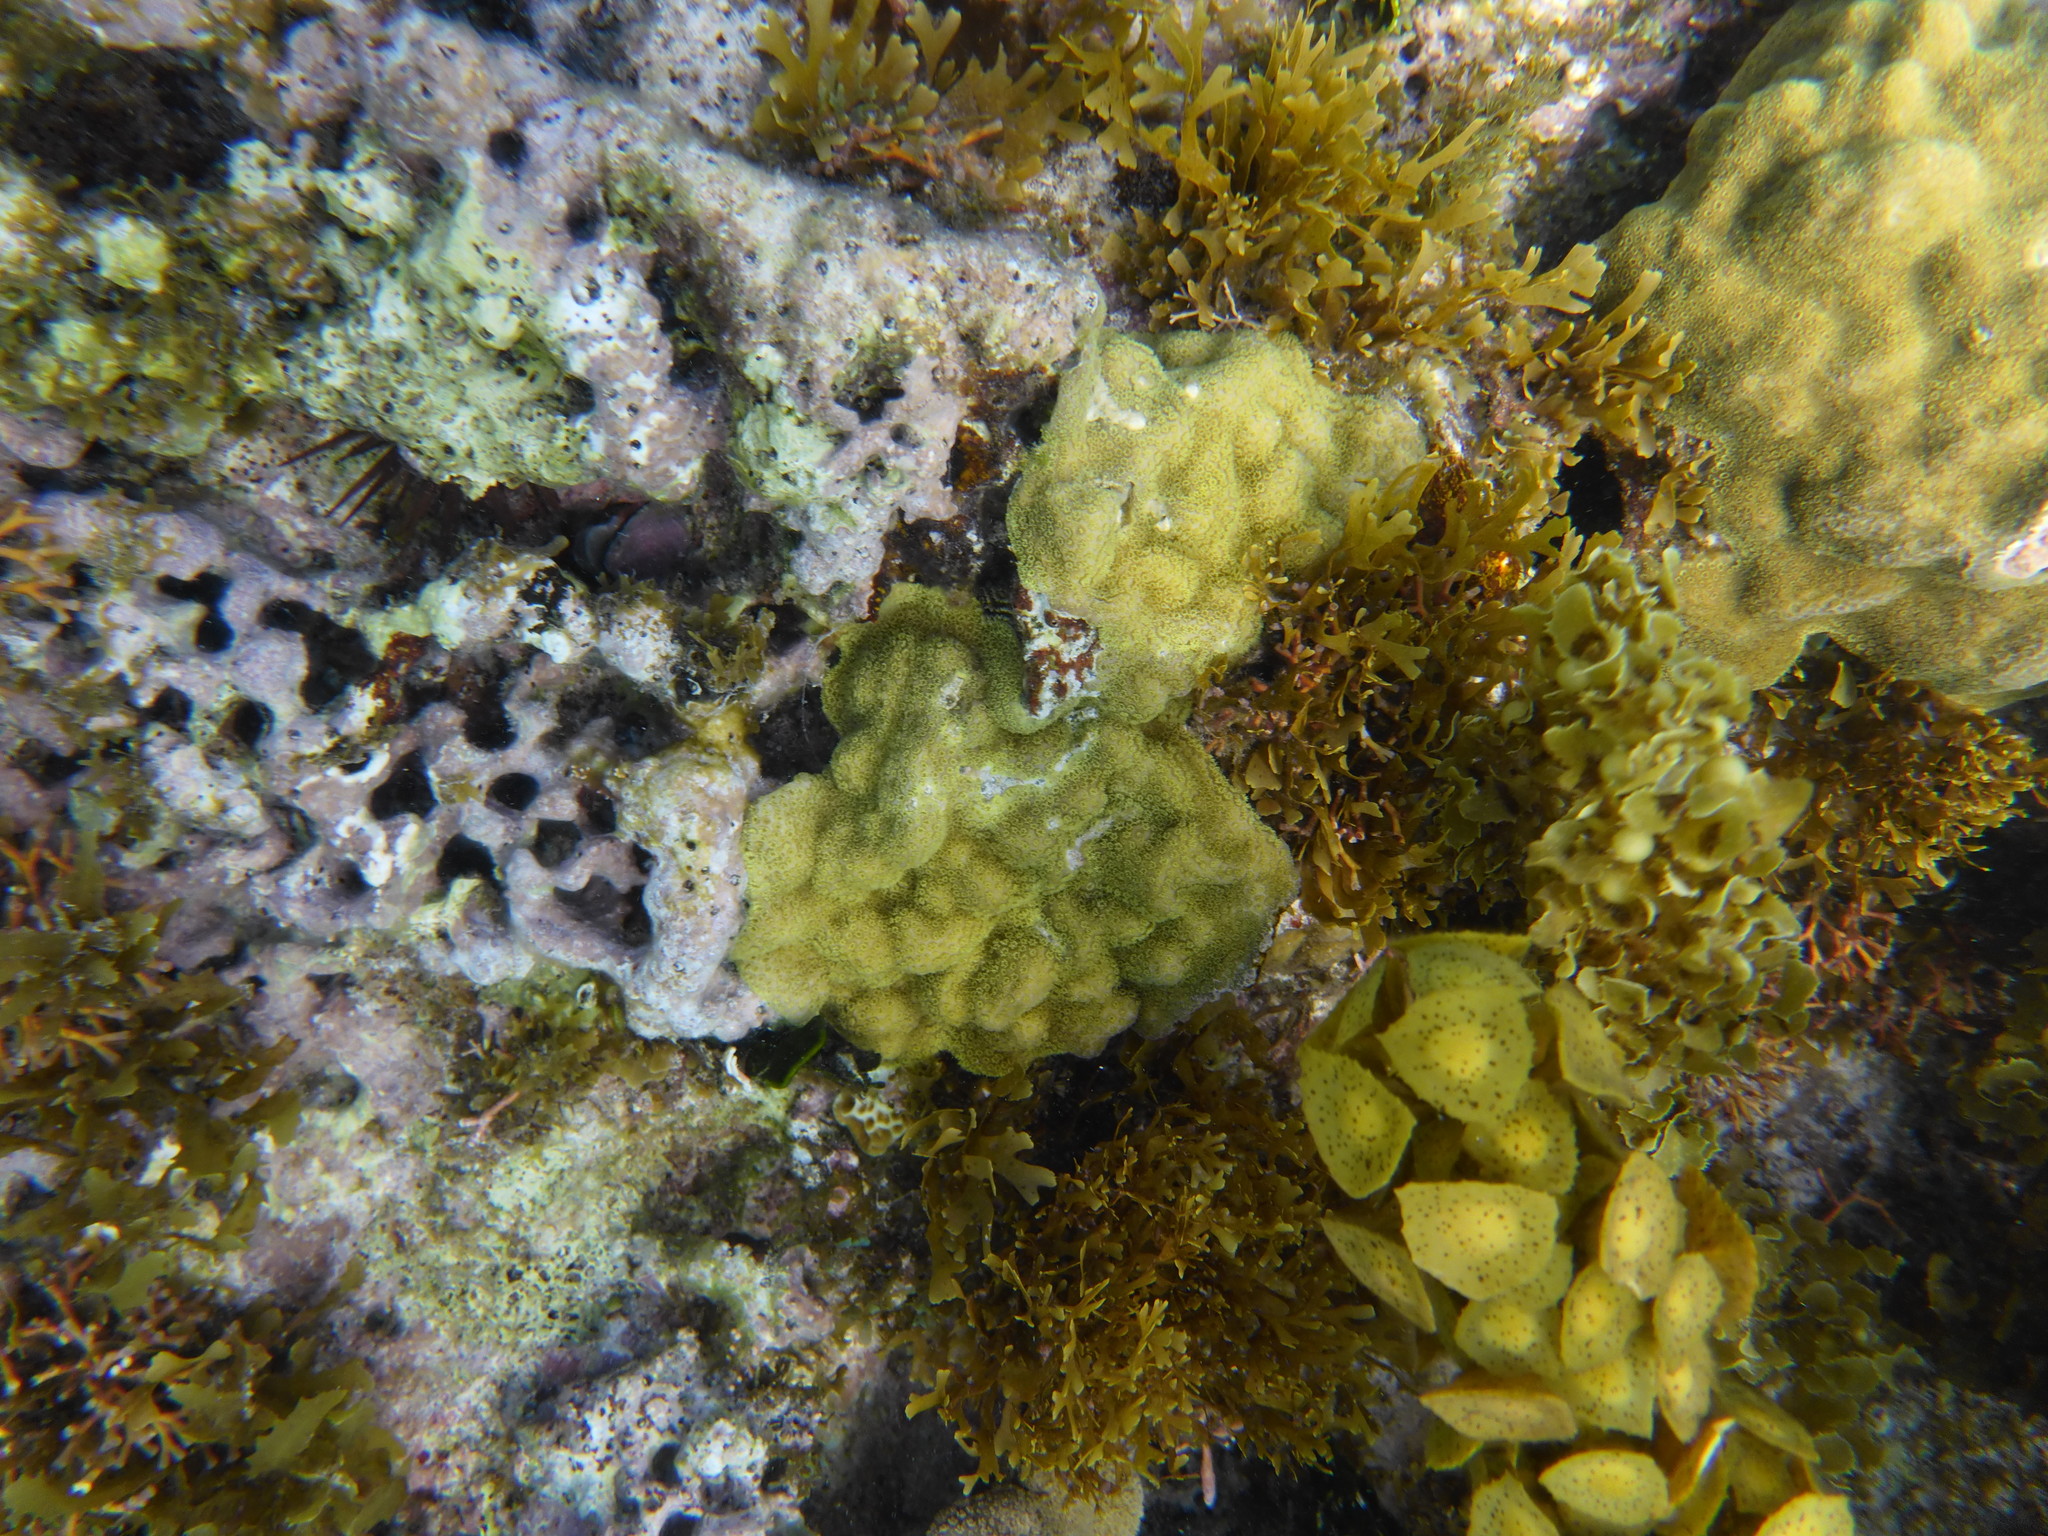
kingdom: Animalia
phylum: Cnidaria
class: Anthozoa
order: Scleractinia
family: Poritidae
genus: Porites
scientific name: Porites astreoides
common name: Mustard hill coral
